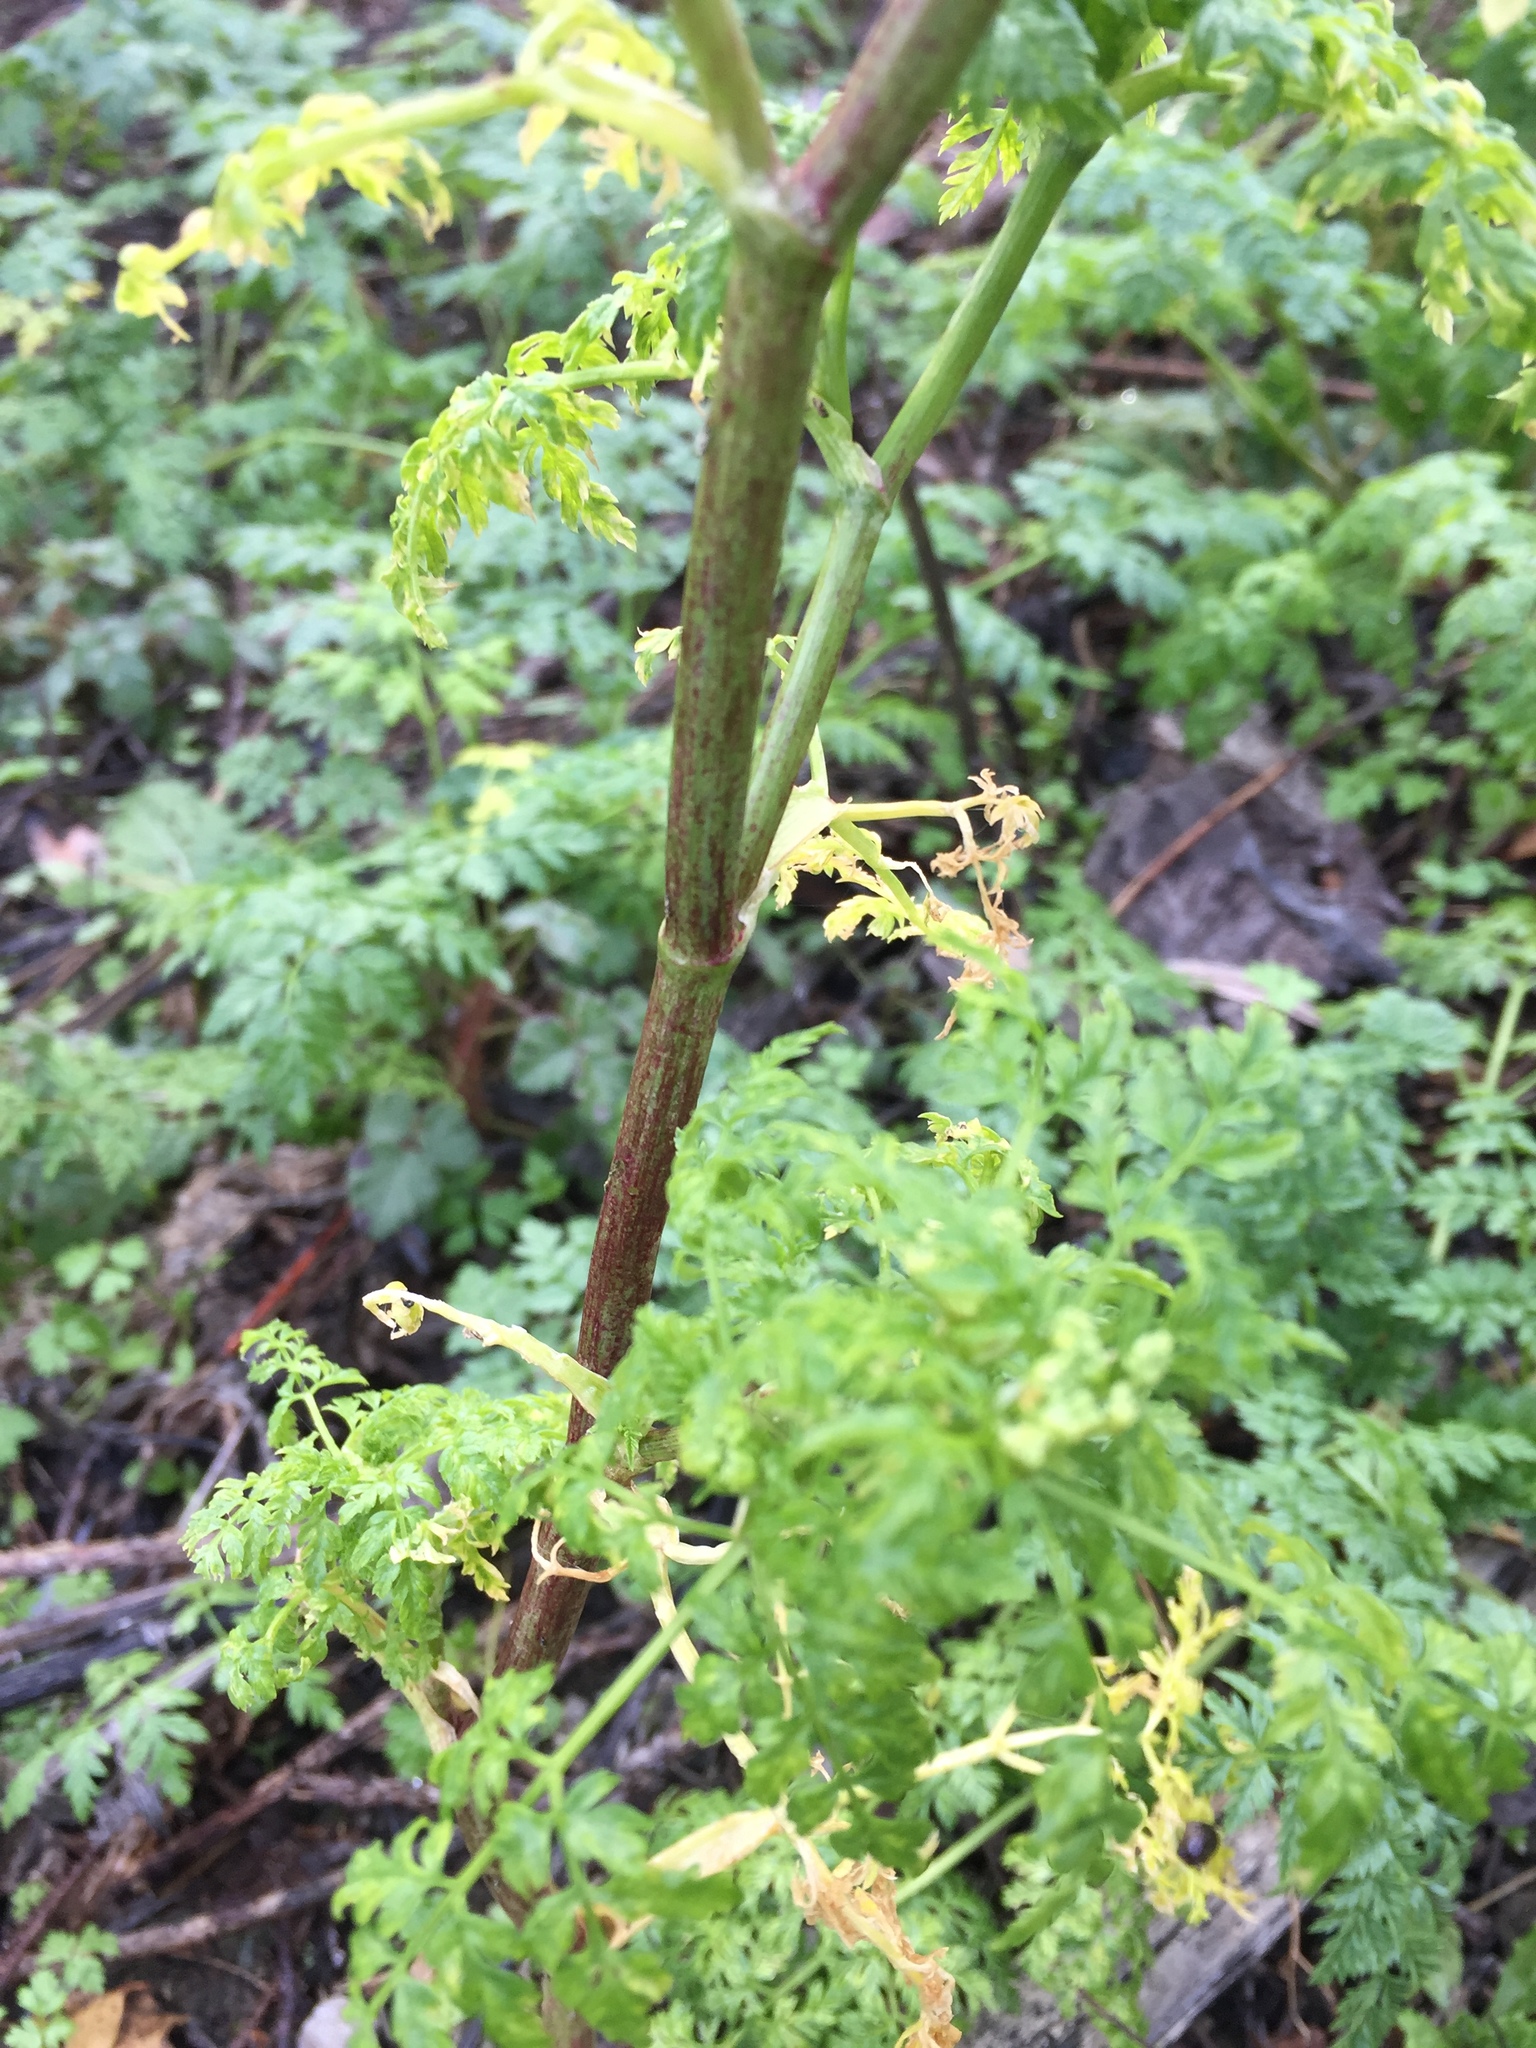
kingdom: Plantae
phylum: Tracheophyta
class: Magnoliopsida
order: Apiales
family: Apiaceae
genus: Conium
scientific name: Conium maculatum
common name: Hemlock
